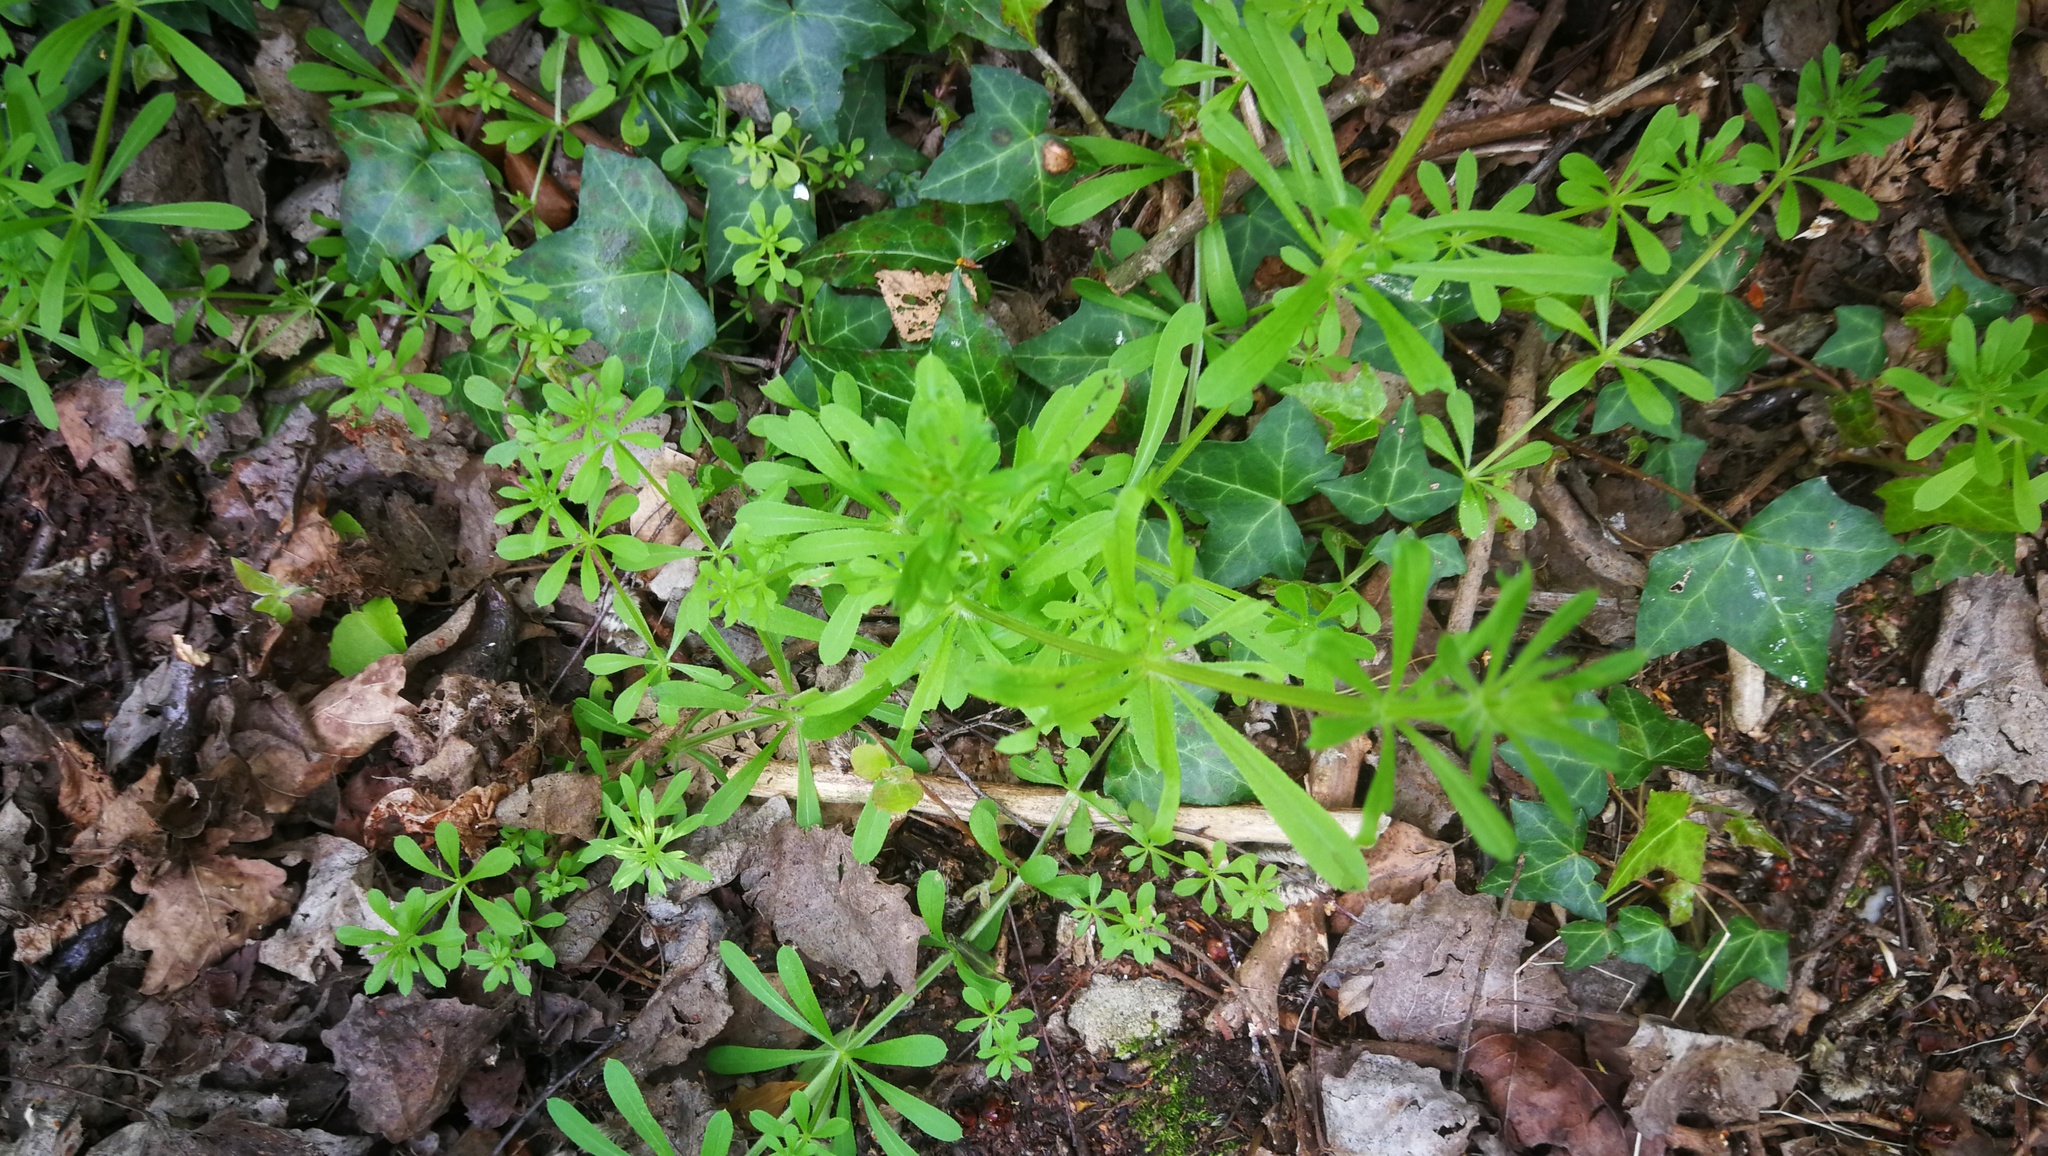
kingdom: Plantae
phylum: Tracheophyta
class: Magnoliopsida
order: Gentianales
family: Rubiaceae
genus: Galium
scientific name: Galium aparine
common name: Cleavers
